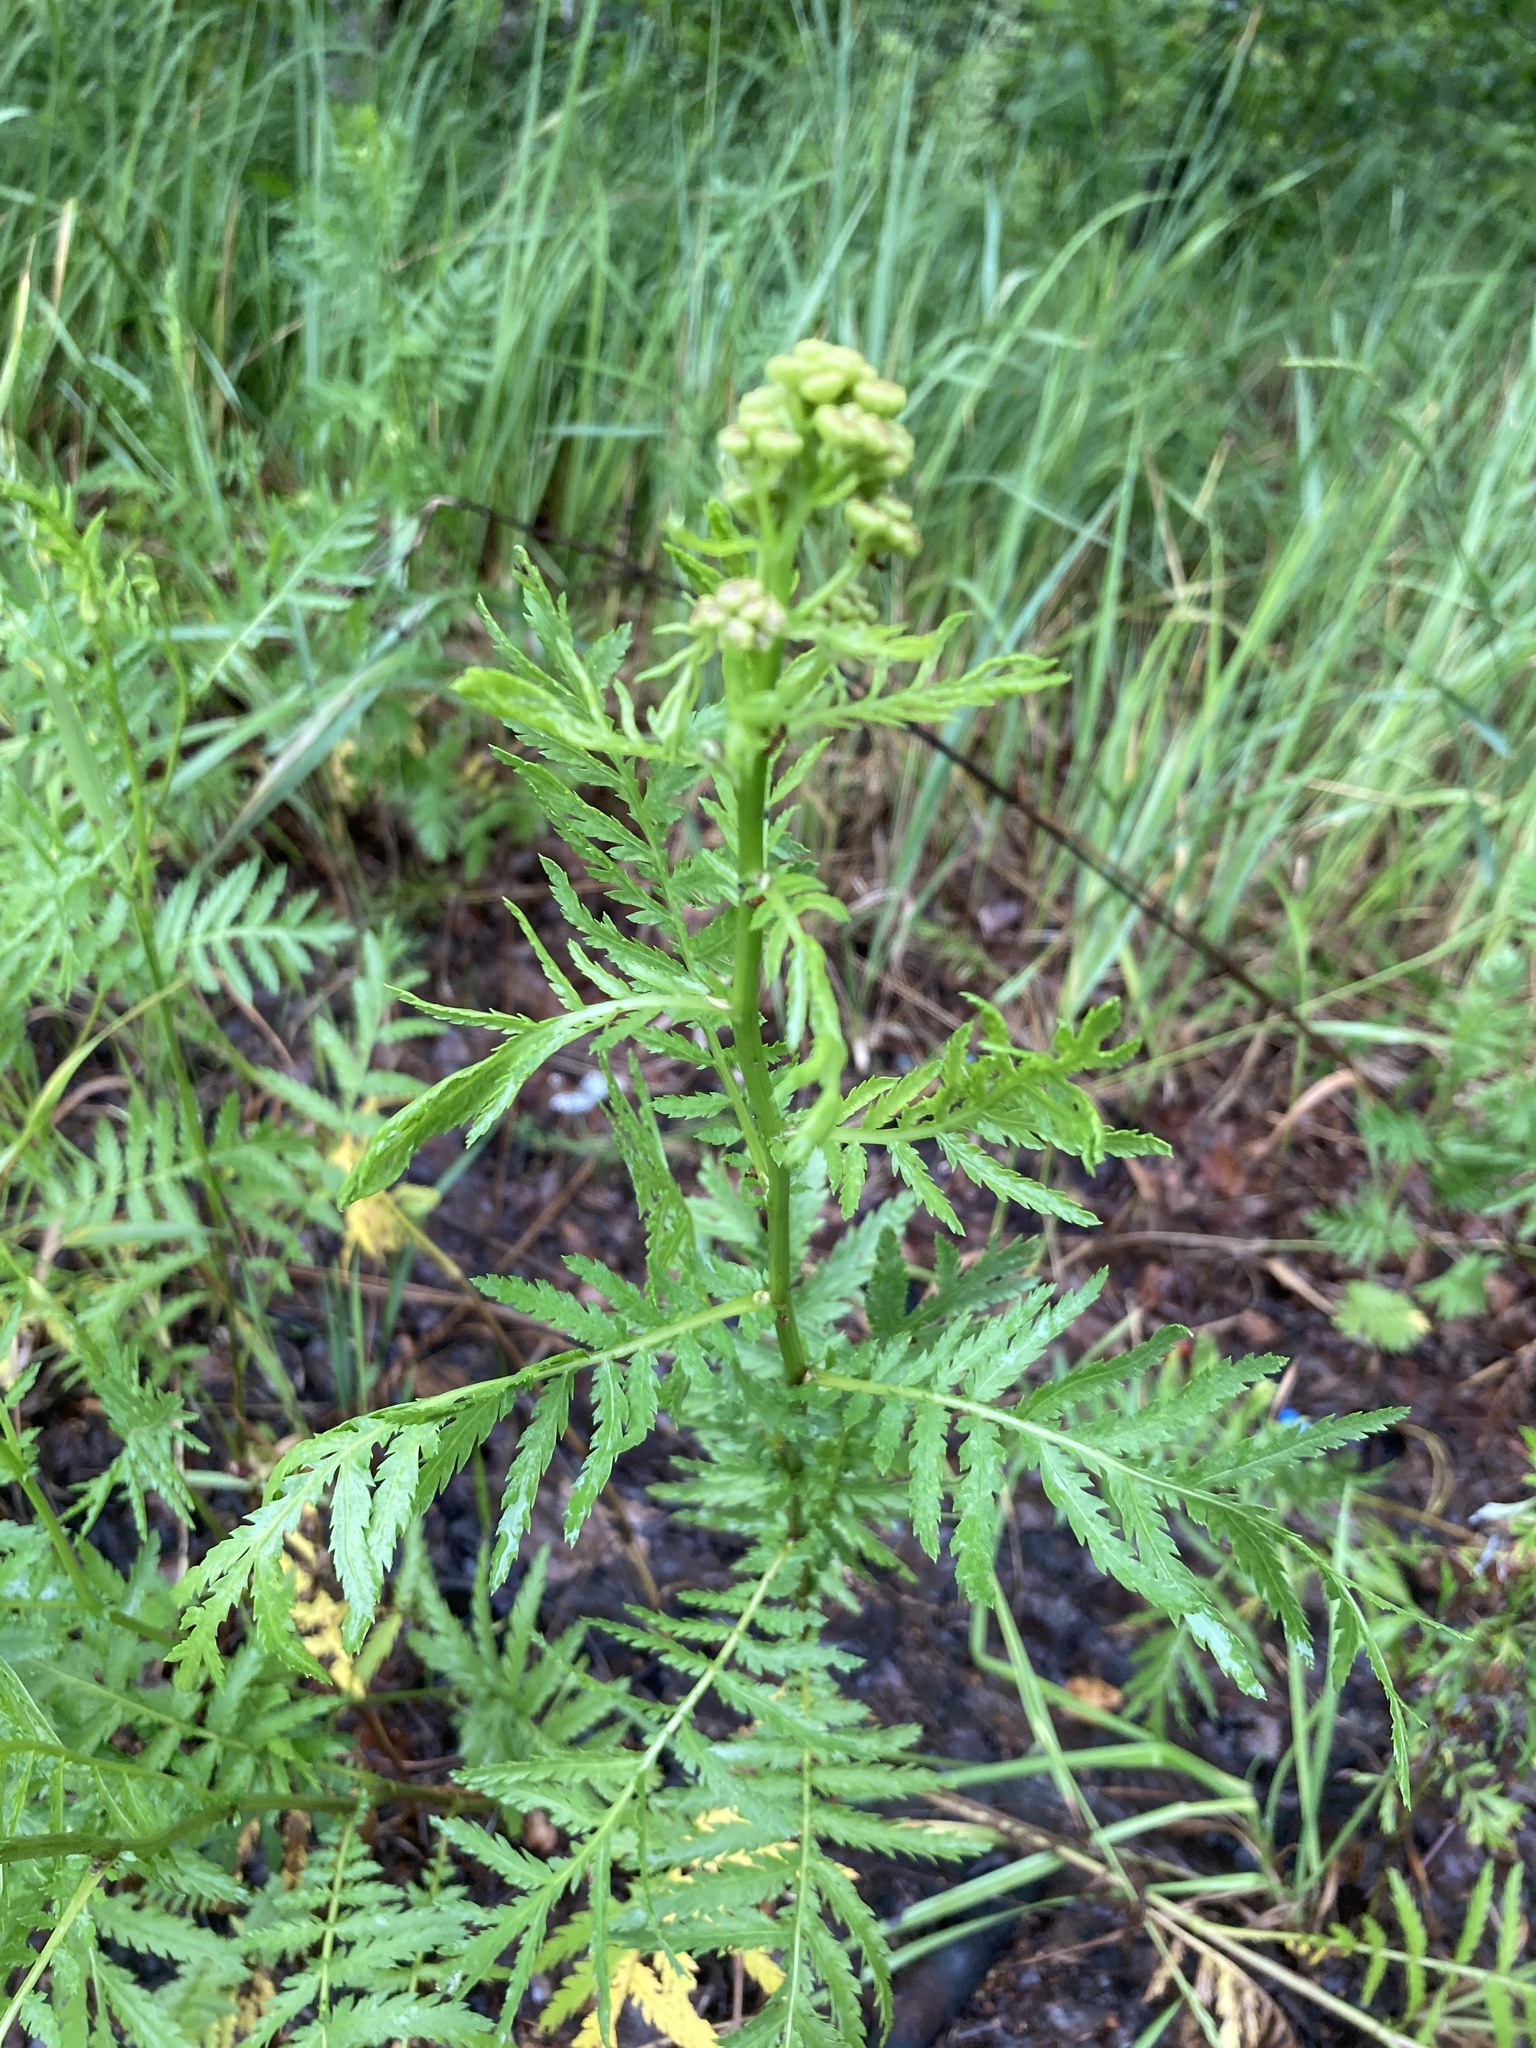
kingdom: Plantae
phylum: Tracheophyta
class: Magnoliopsida
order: Asterales
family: Asteraceae
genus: Tanacetum
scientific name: Tanacetum vulgare
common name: Common tansy
